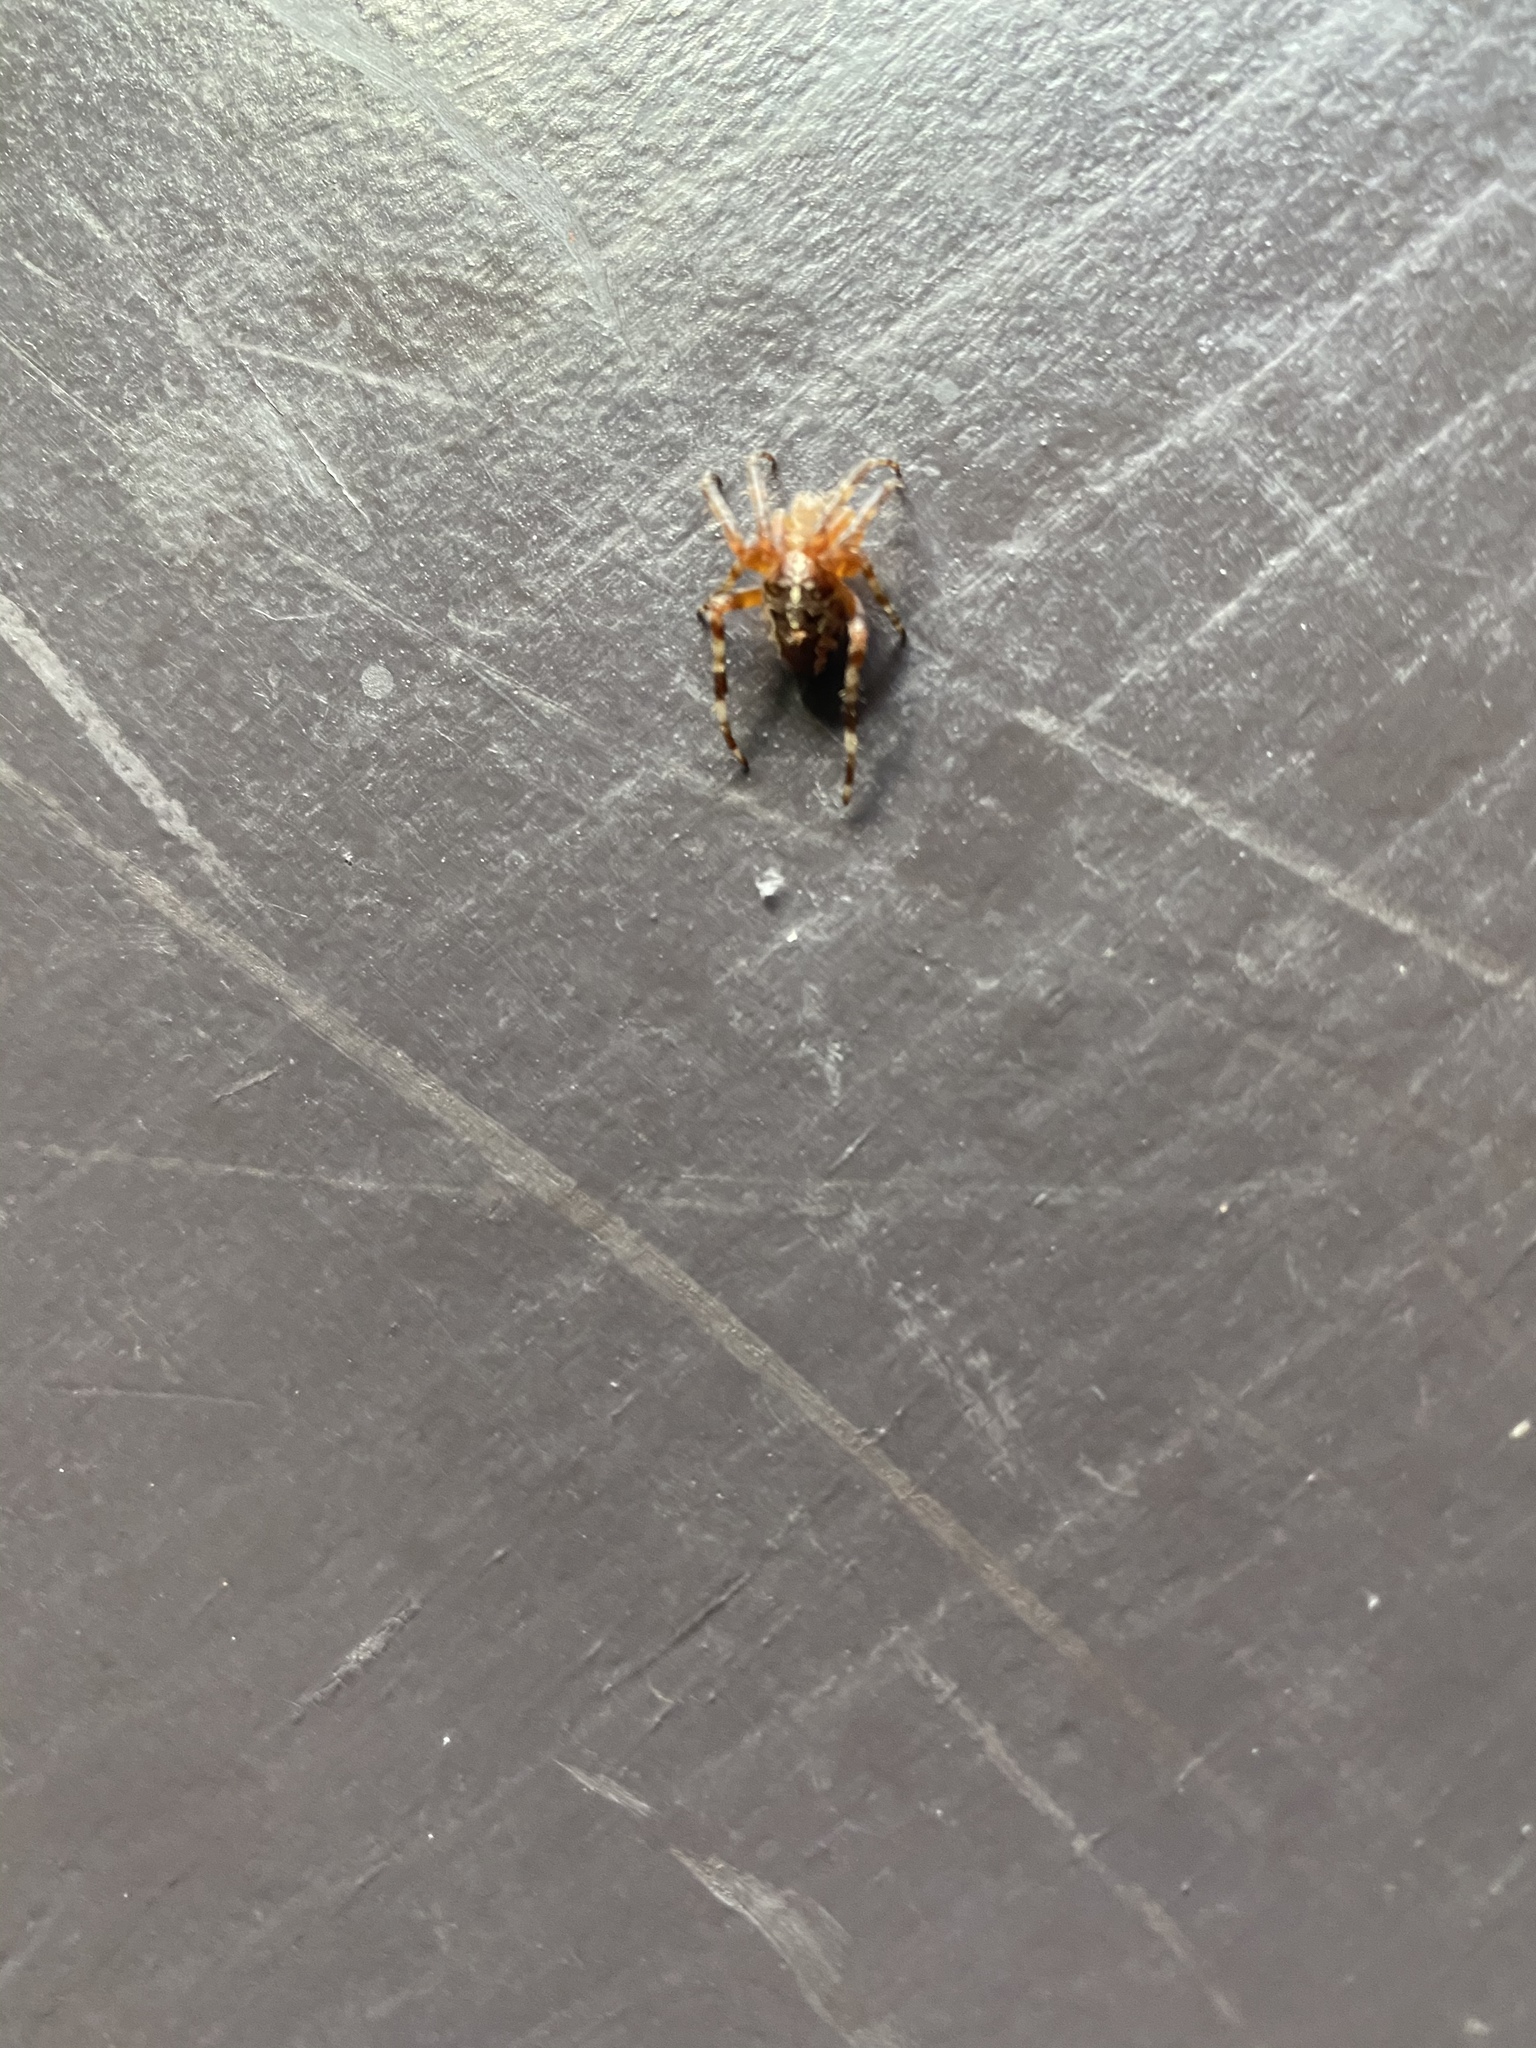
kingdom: Animalia
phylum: Arthropoda
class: Arachnida
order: Araneae
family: Araneidae
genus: Araneus
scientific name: Araneus diadematus
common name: Cross orbweaver
